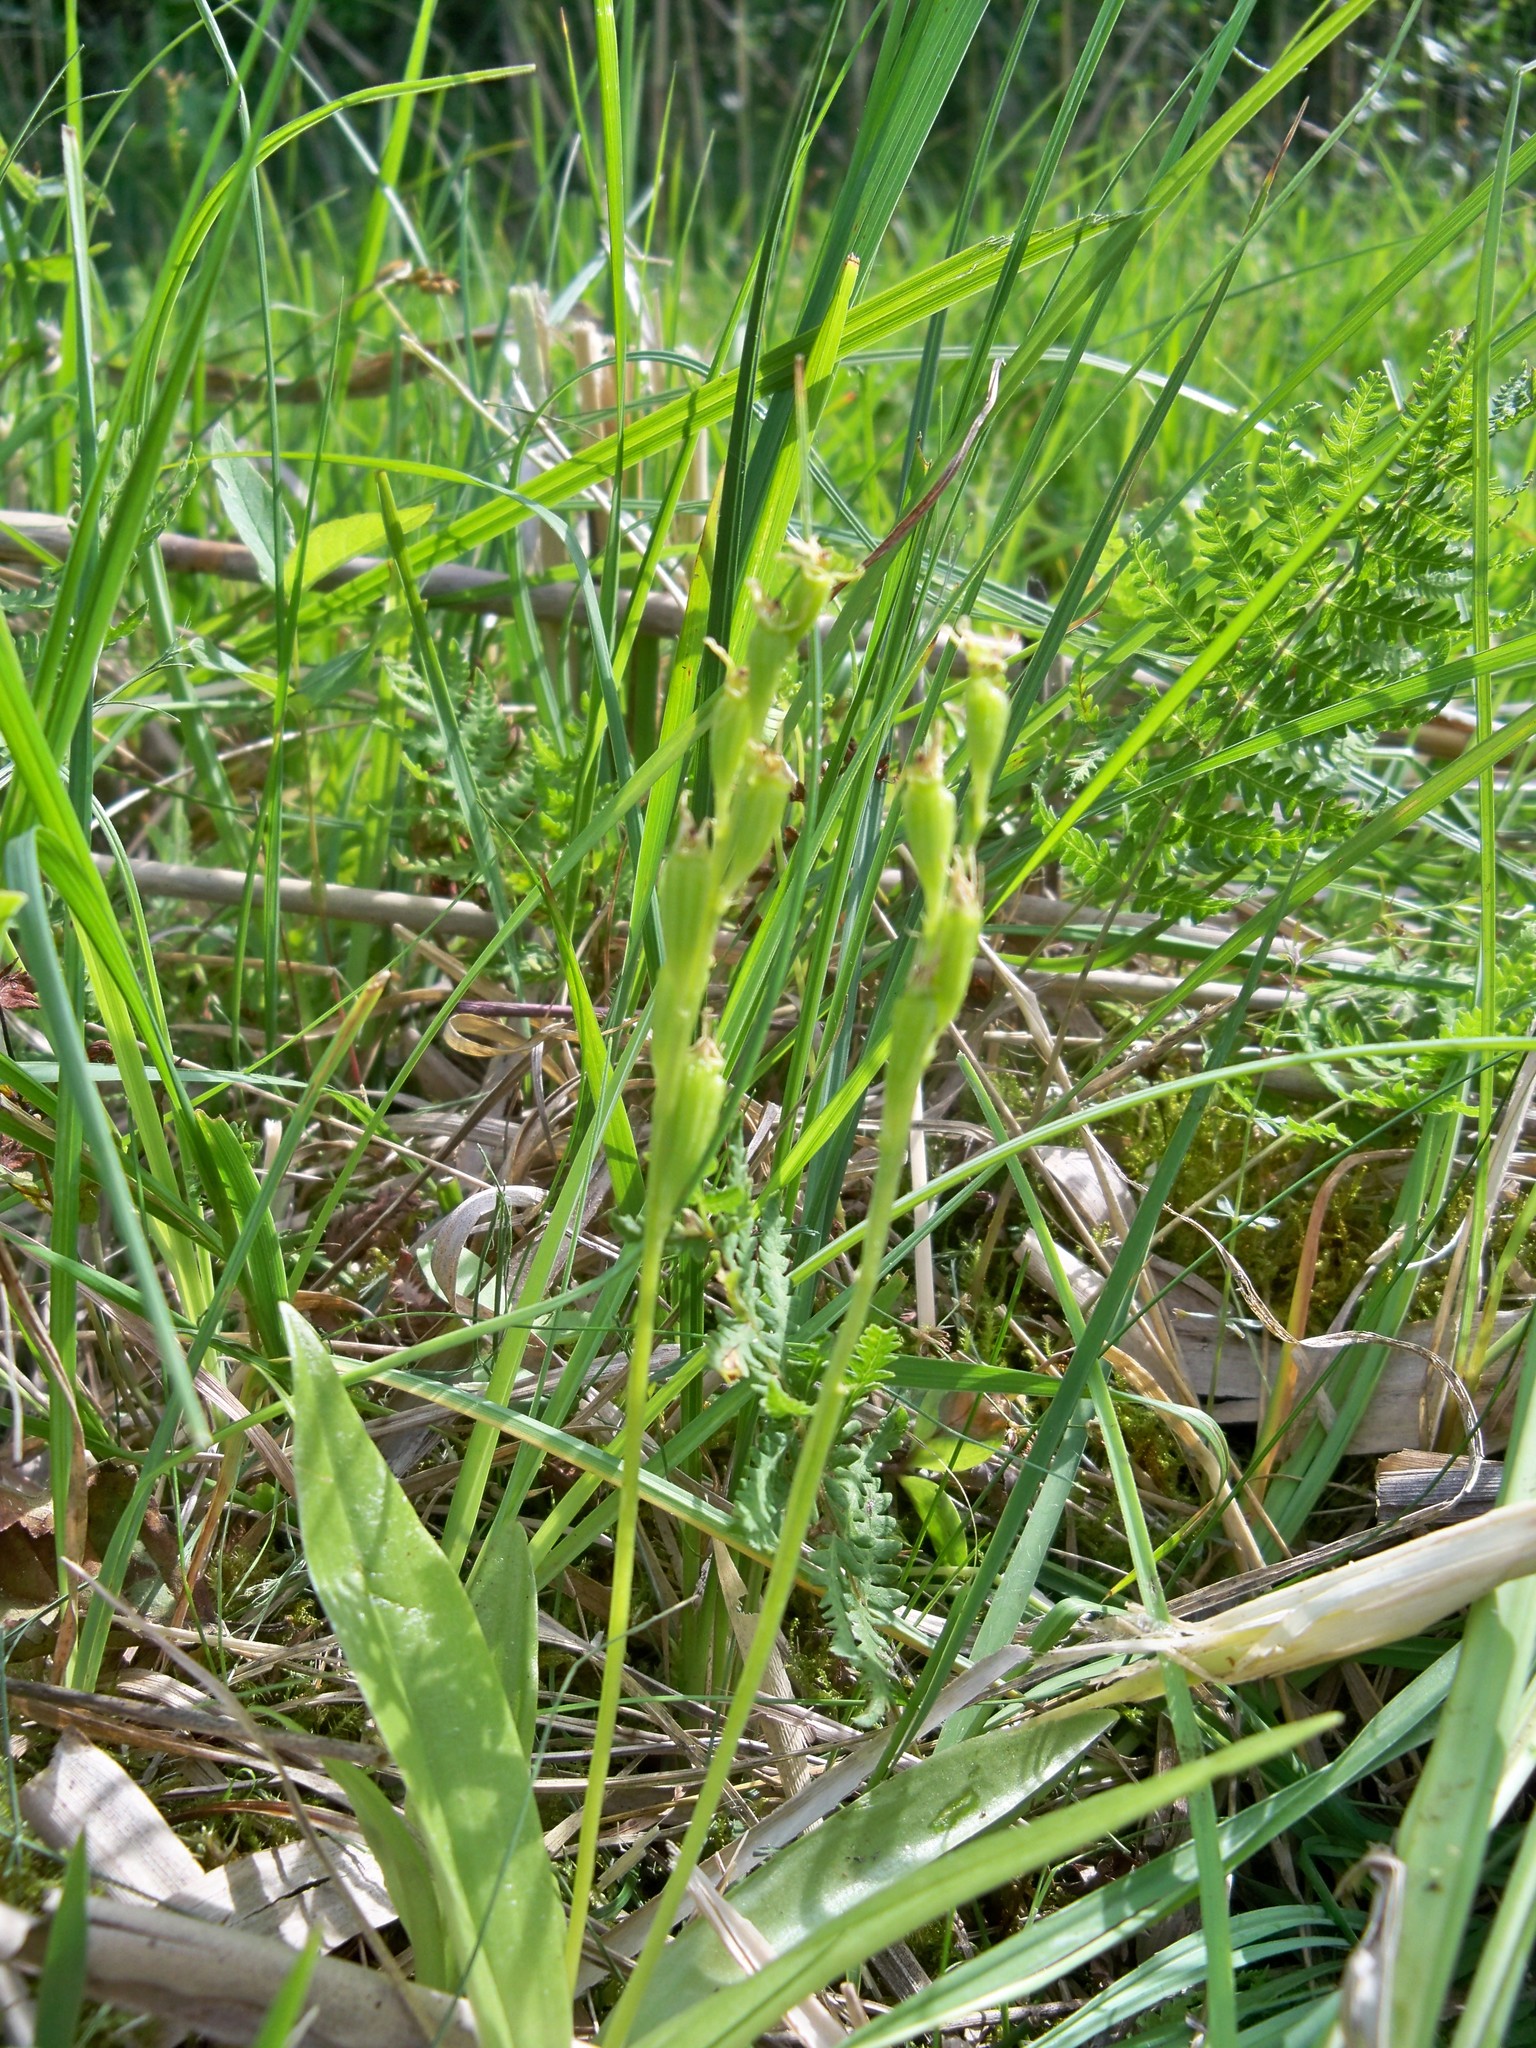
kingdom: Animalia
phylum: Arthropoda
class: Insecta
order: Coleoptera
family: Curculionidae
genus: Liparis
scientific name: Liparis loeselii
